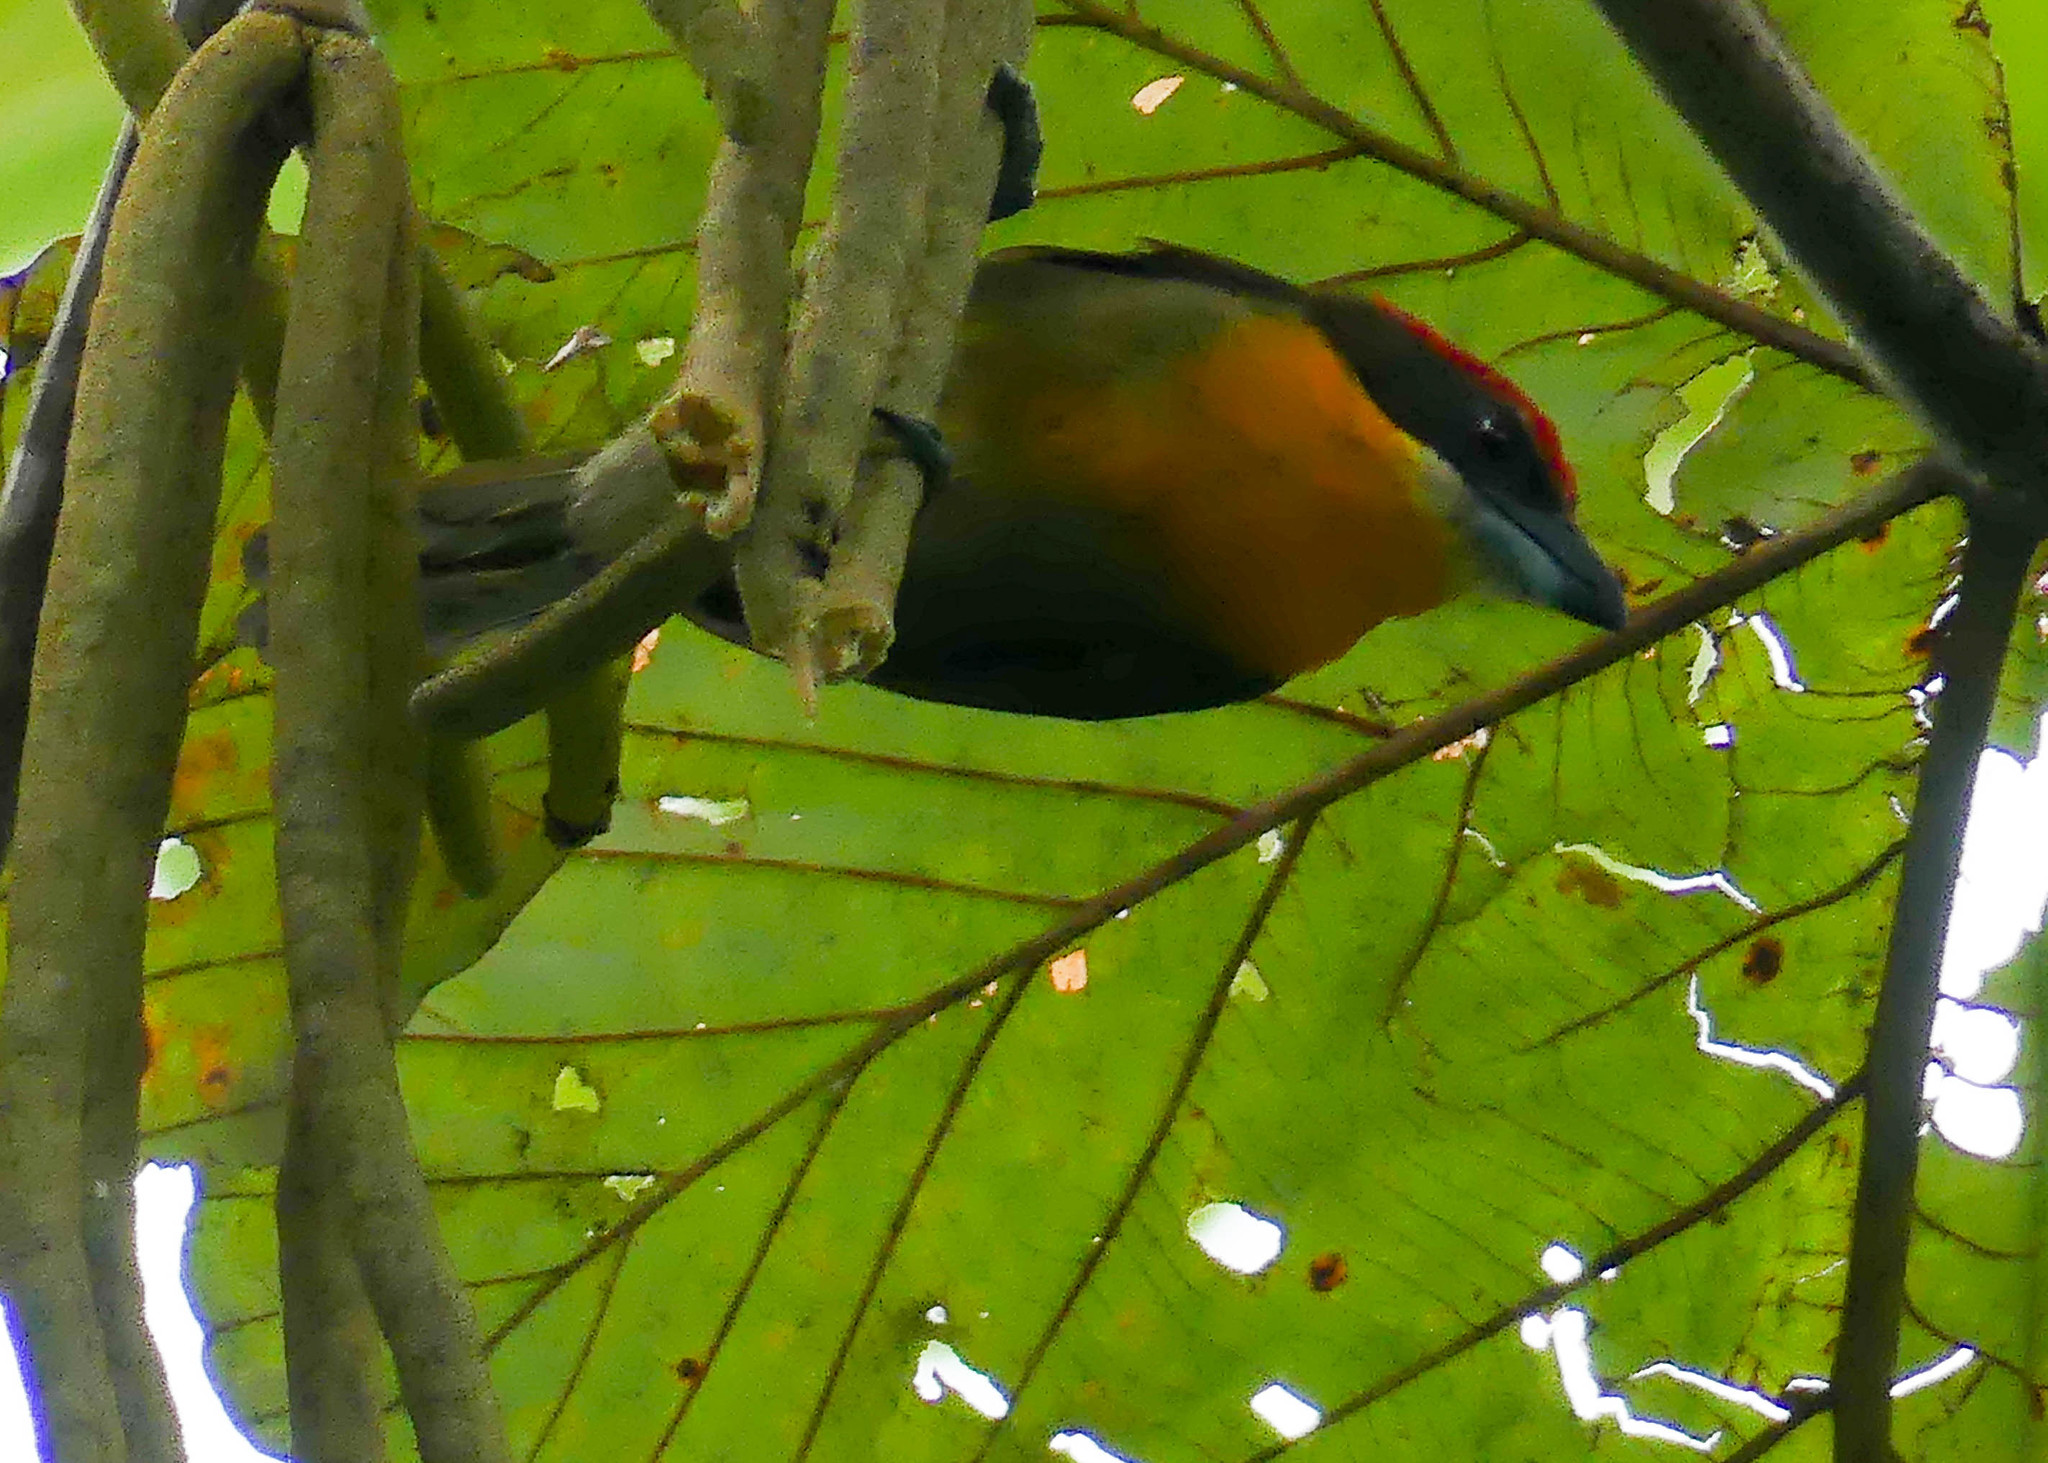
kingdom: Animalia
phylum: Chordata
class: Aves
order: Piciformes
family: Capitonidae
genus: Capito
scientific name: Capito aurovirens
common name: Scarlet-crowned barbet
